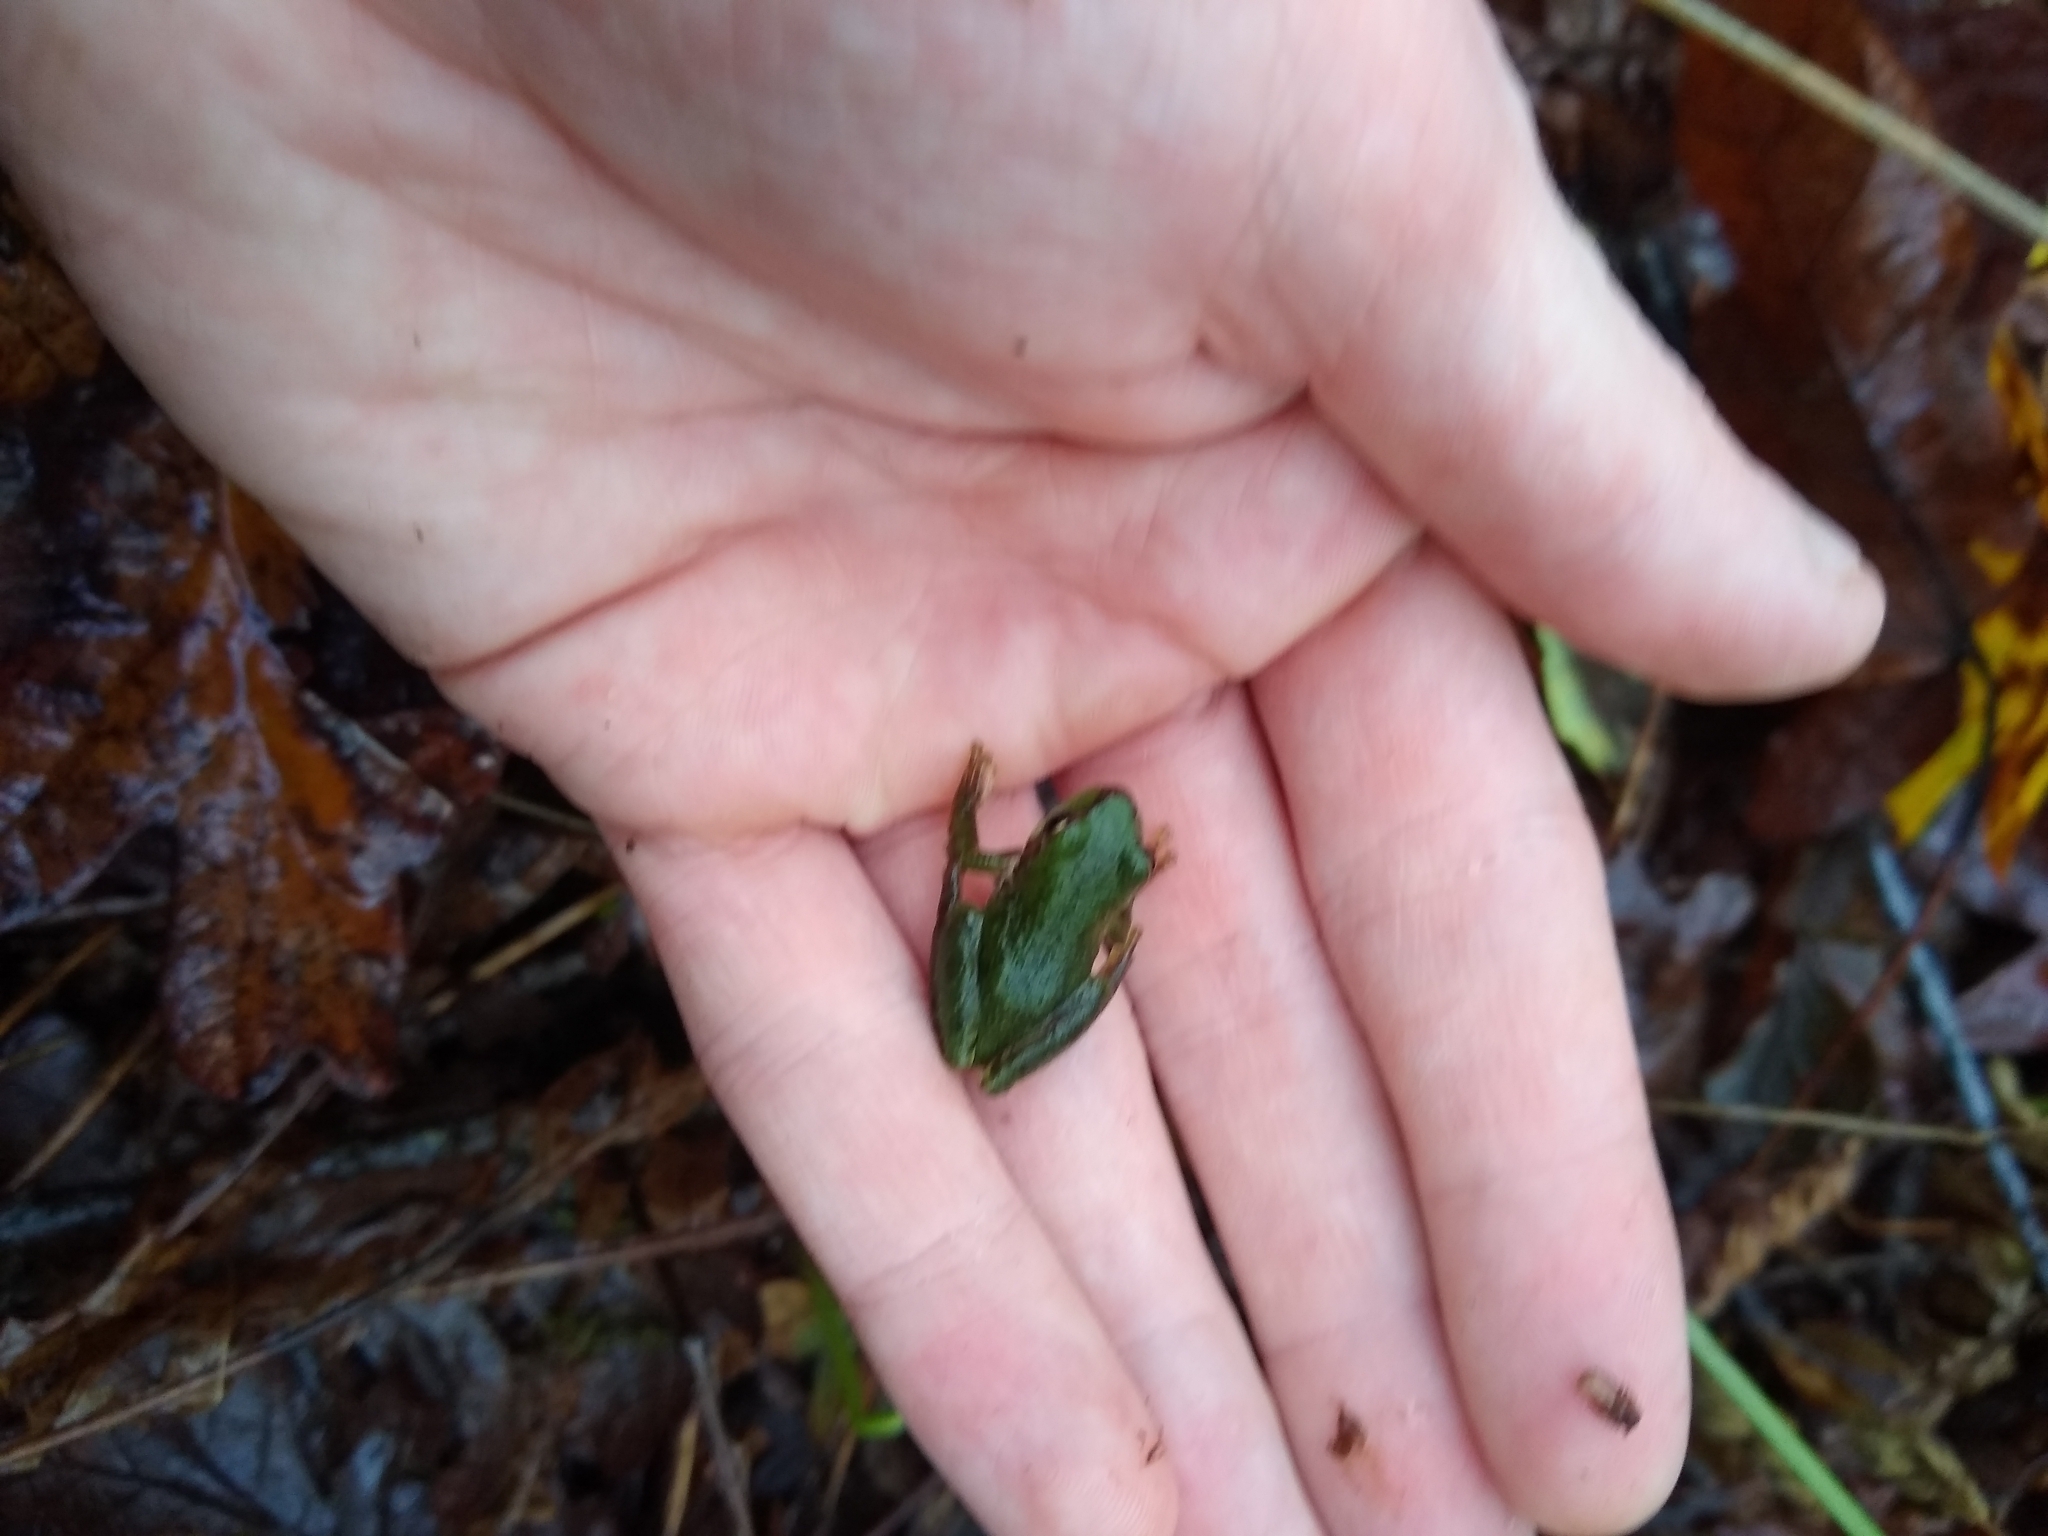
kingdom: Animalia
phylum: Chordata
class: Amphibia
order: Anura
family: Hylidae
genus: Pseudacris
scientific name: Pseudacris regilla
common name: Pacific chorus frog
